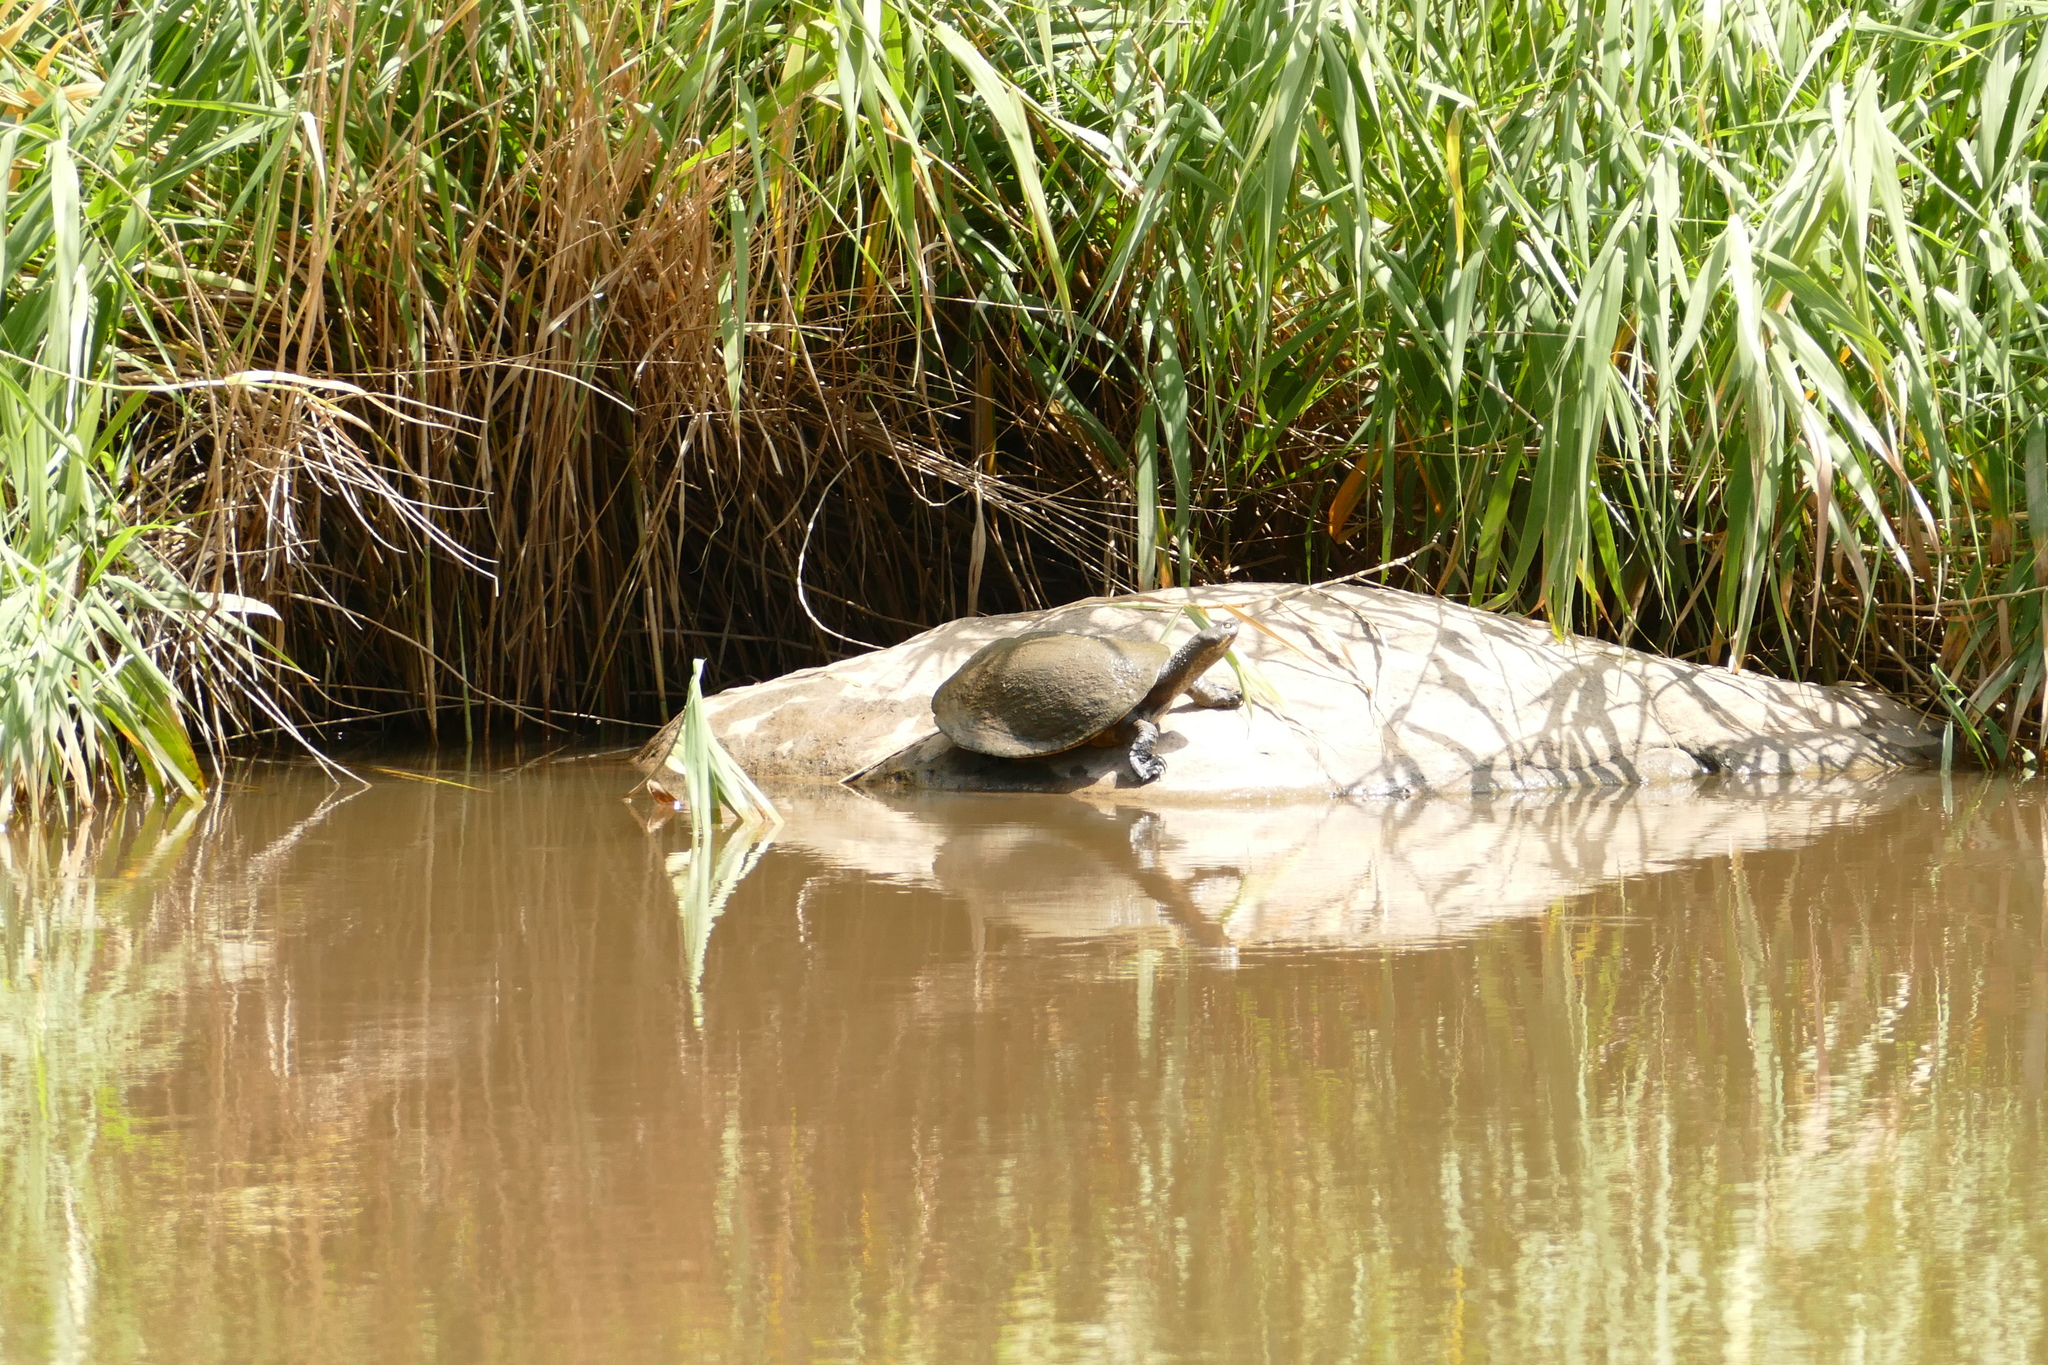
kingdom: Animalia
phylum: Chordata
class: Testudines
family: Chelidae
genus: Emydura
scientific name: Emydura macquarii
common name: Murray river turtle
